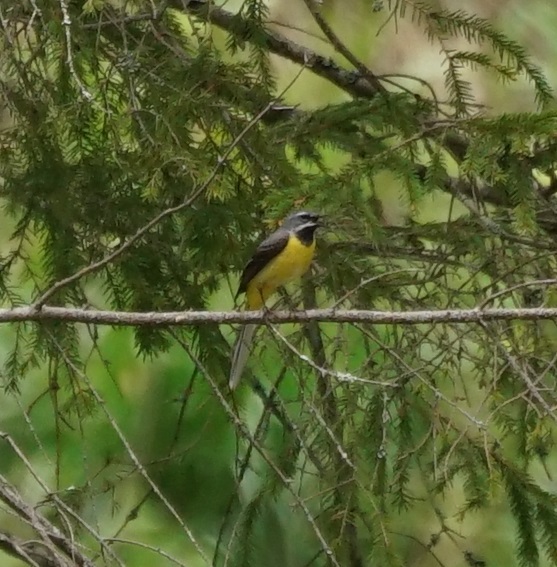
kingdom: Animalia
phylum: Chordata
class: Aves
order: Passeriformes
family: Motacillidae
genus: Motacilla
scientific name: Motacilla cinerea
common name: Grey wagtail
